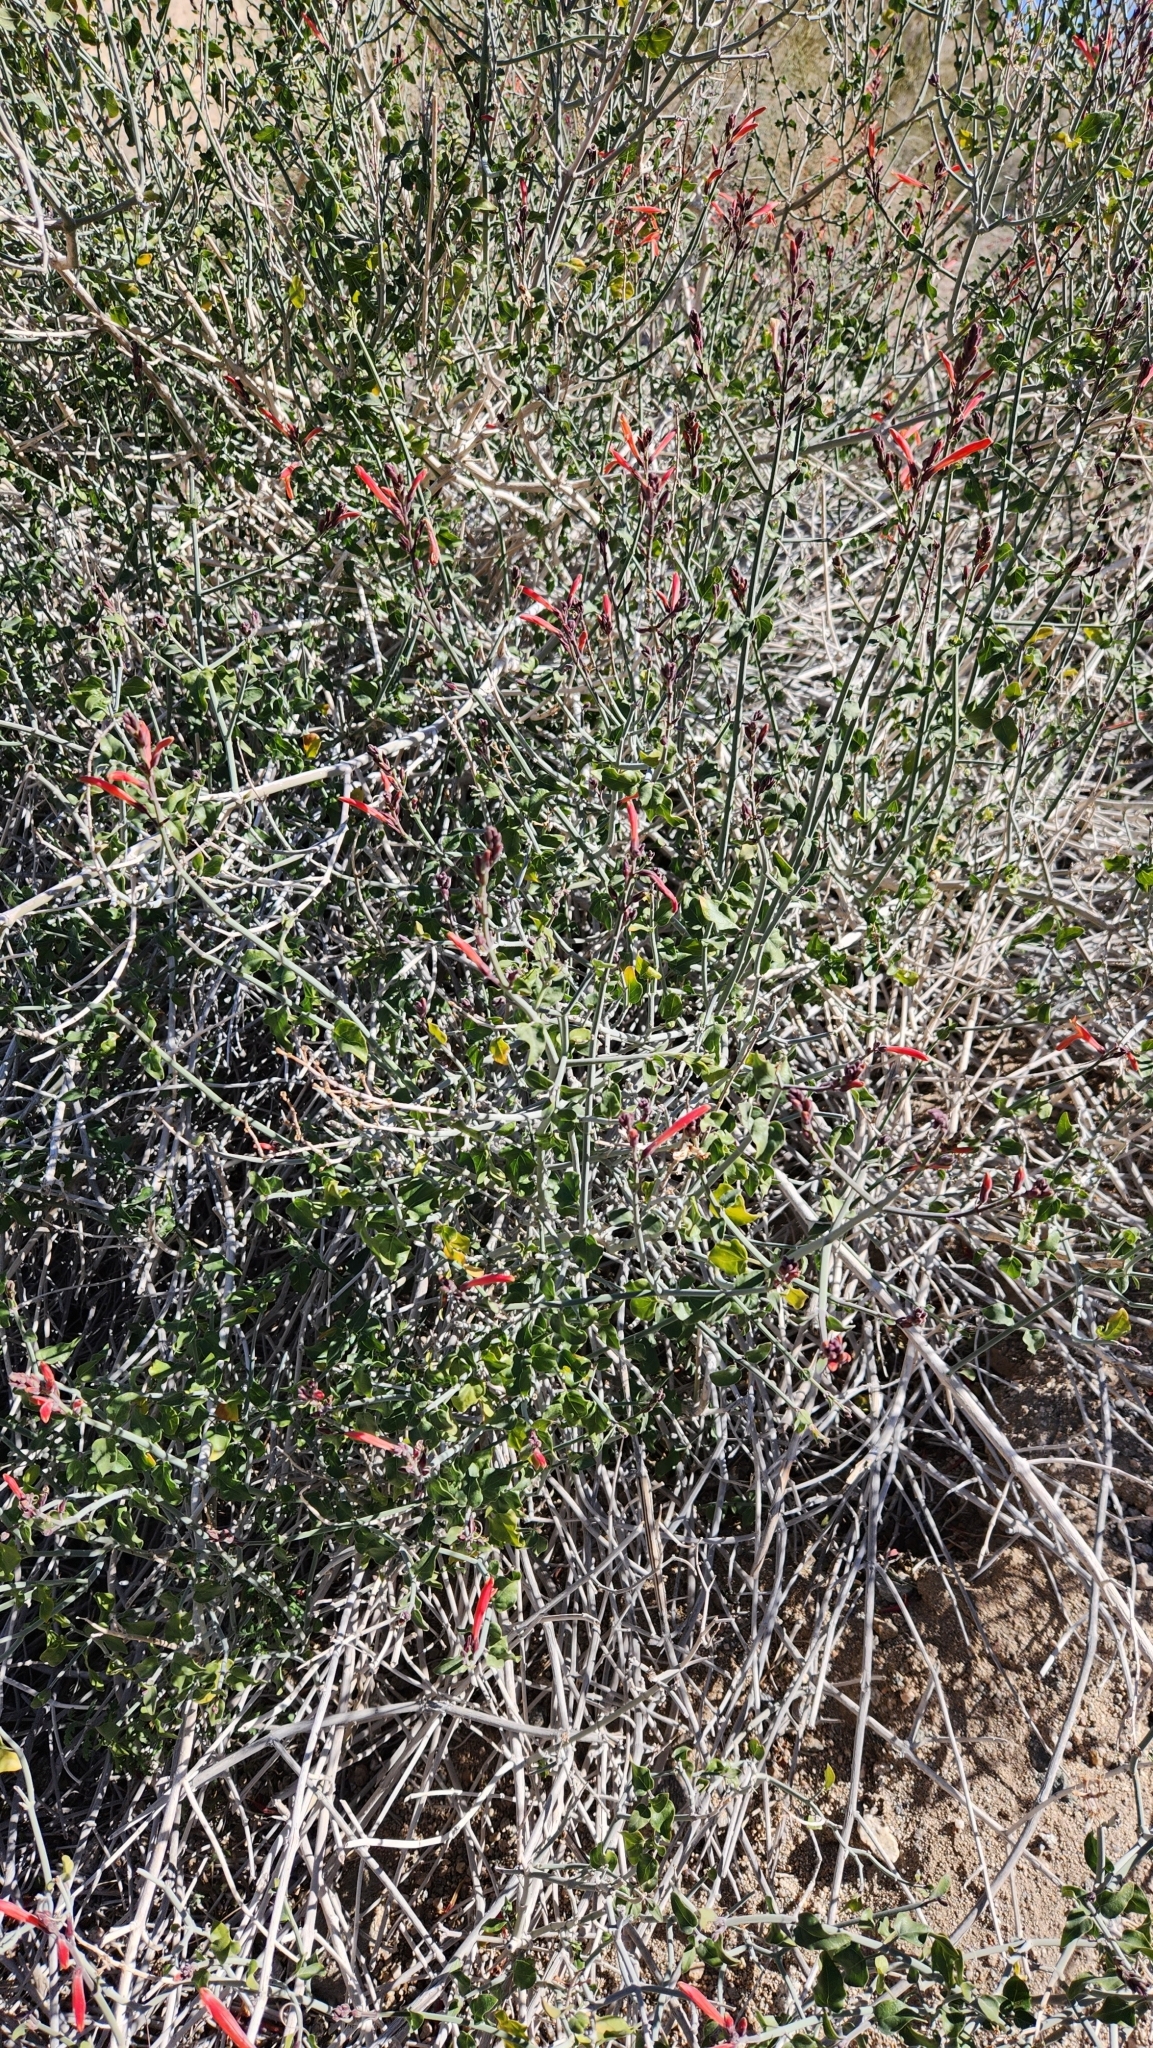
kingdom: Plantae
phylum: Tracheophyta
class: Magnoliopsida
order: Lamiales
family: Acanthaceae
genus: Justicia
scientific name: Justicia californica
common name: Chuparosa-honeysuckle
